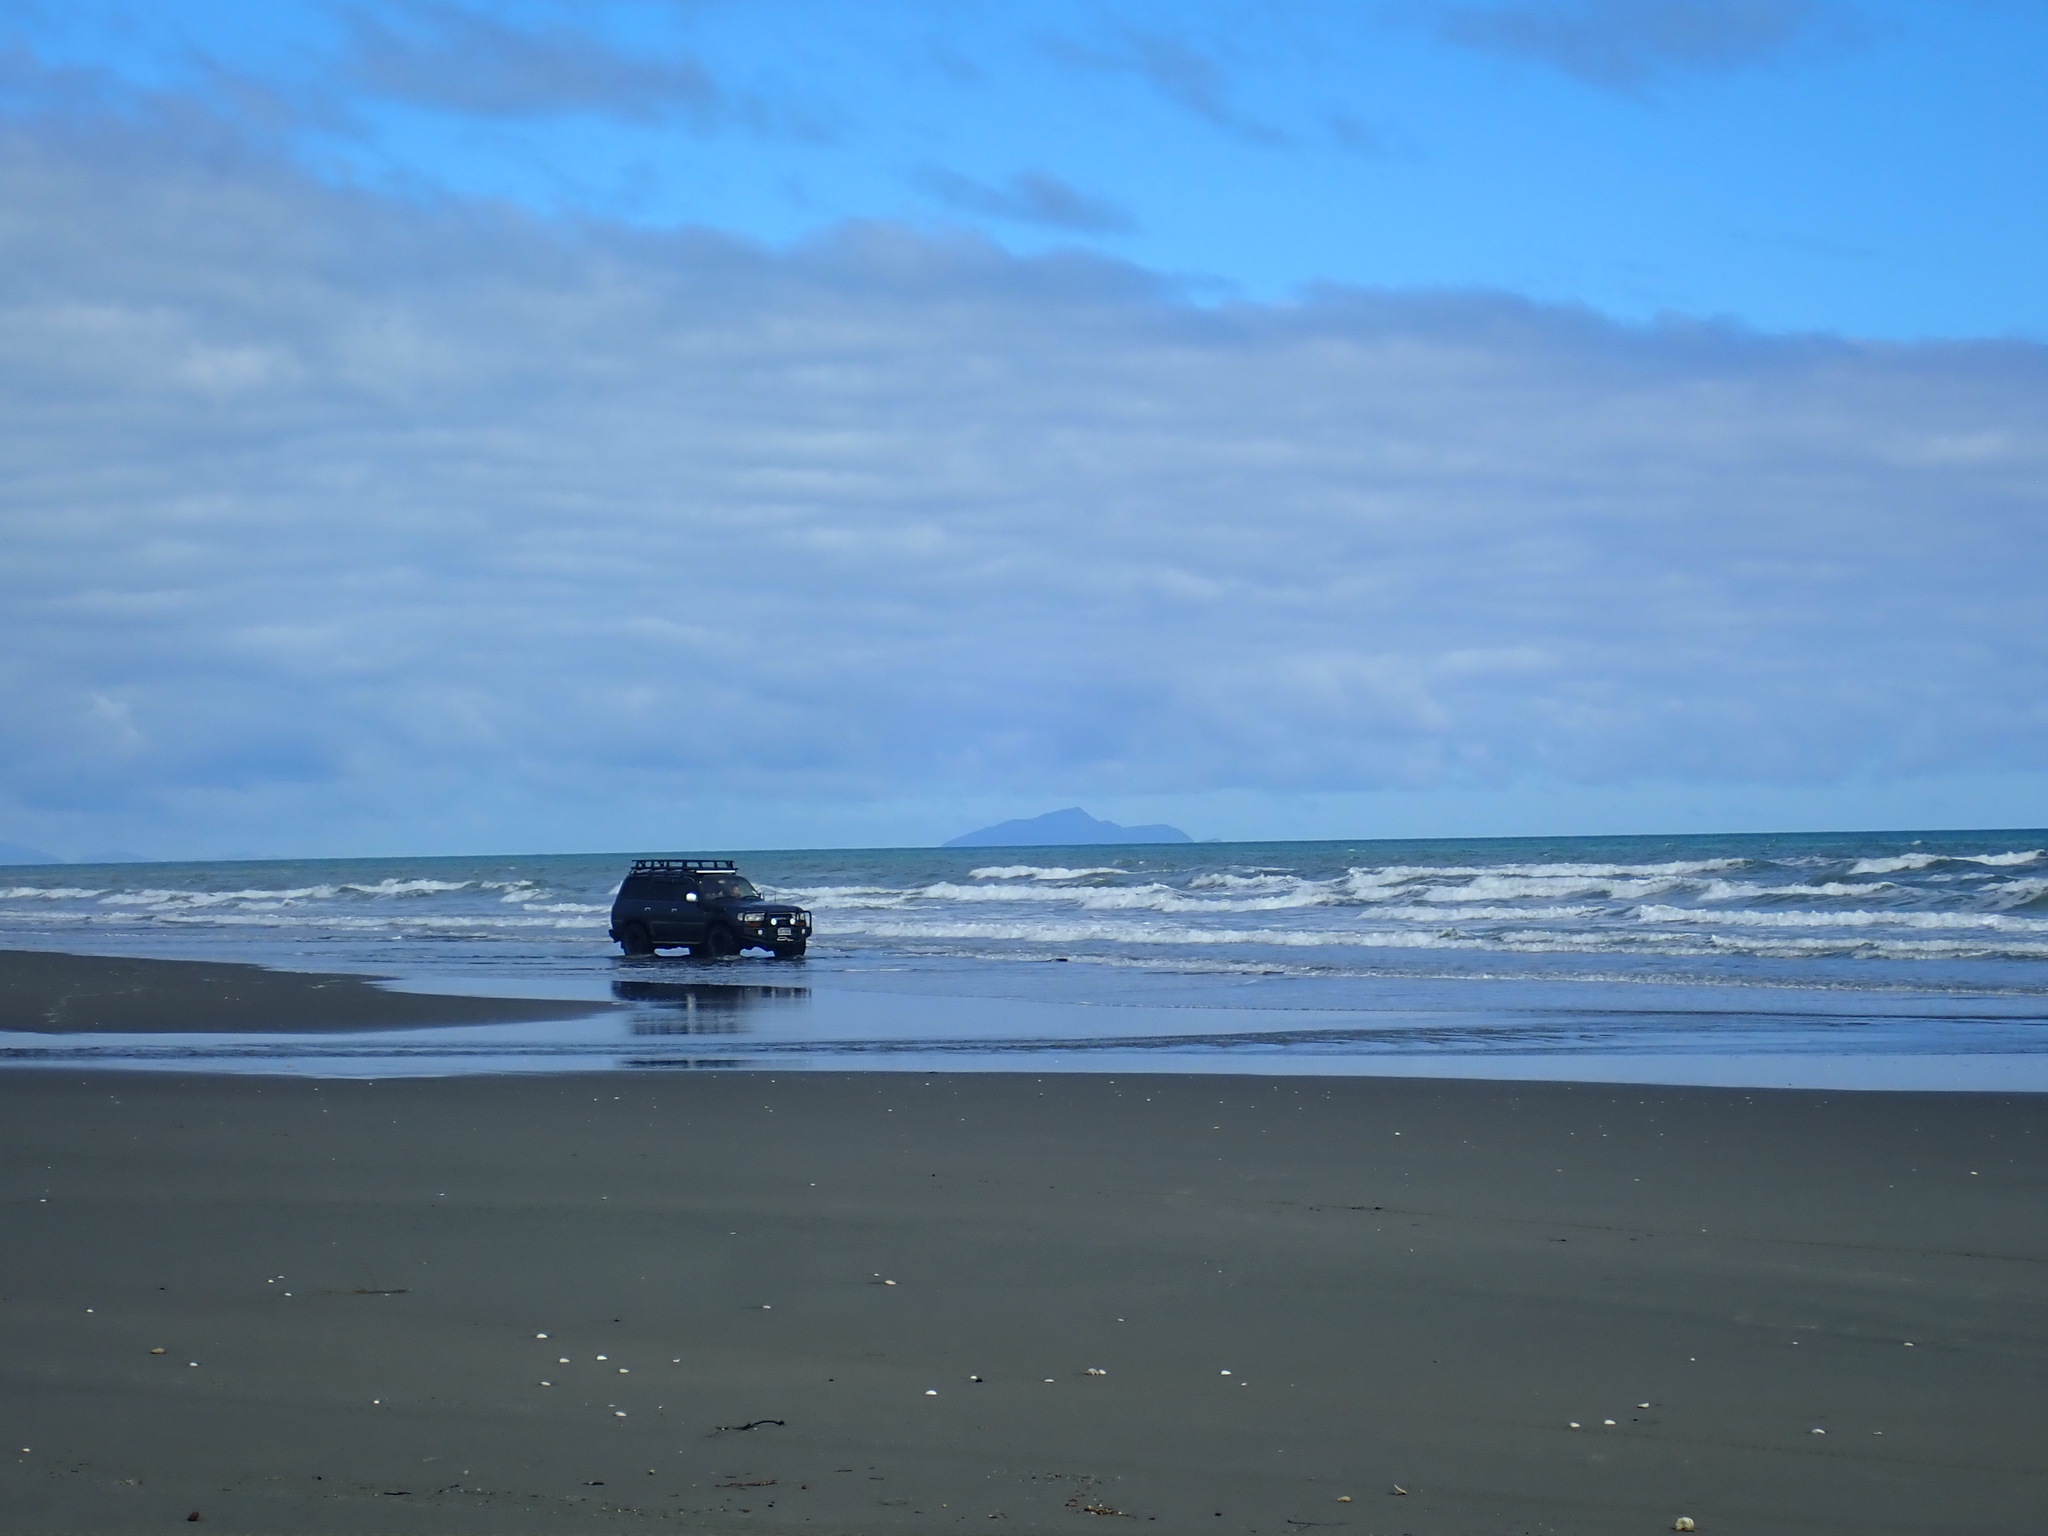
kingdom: Animalia
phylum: Chordata
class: Mammalia
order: Carnivora
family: Otariidae
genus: Arctocephalus
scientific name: Arctocephalus forsteri
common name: New zealand fur seal
